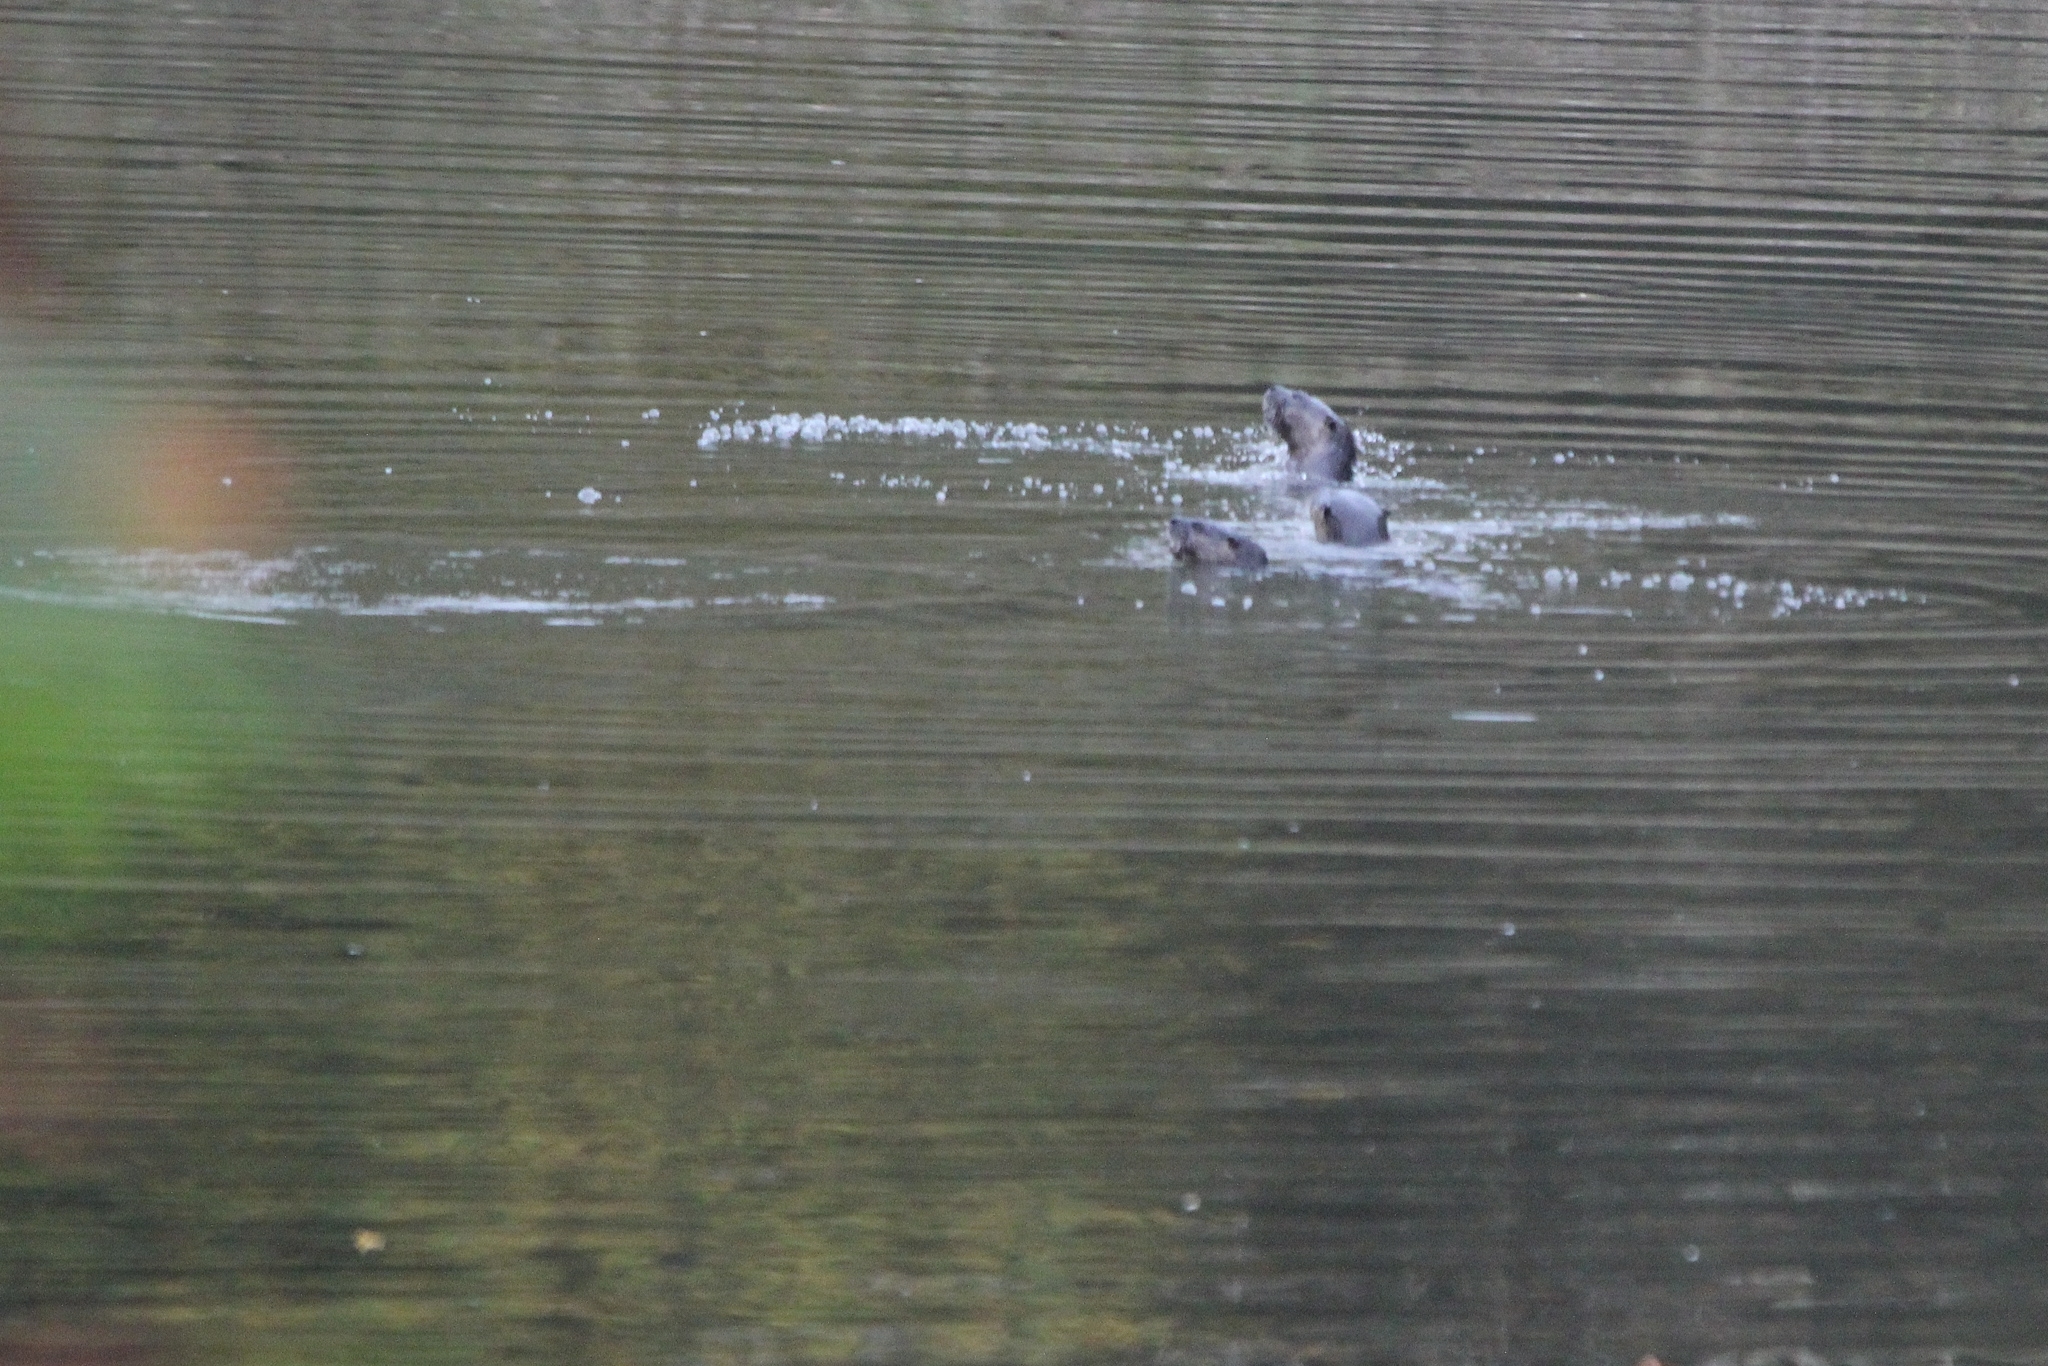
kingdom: Animalia
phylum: Chordata
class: Mammalia
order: Carnivora
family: Mustelidae
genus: Lontra
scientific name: Lontra canadensis
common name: North american river otter
